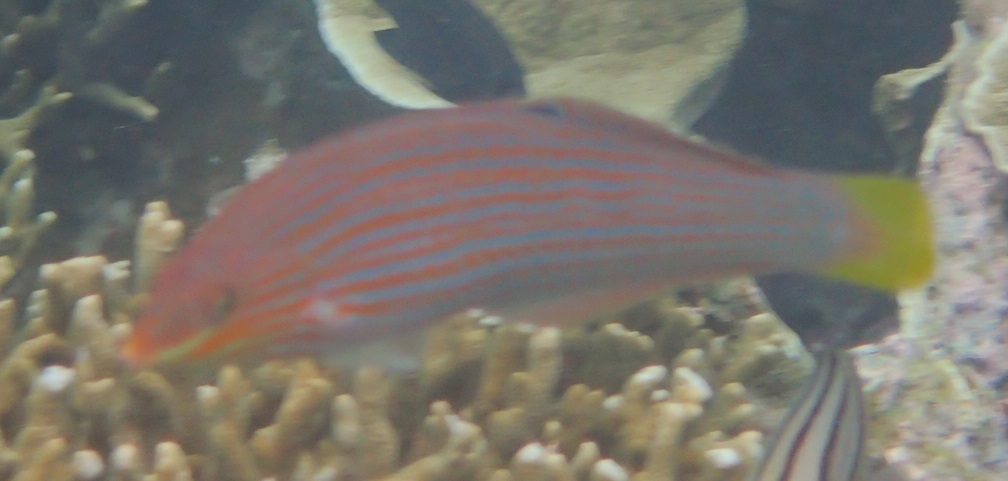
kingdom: Animalia
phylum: Chordata
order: Perciformes
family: Labridae
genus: Halichoeres
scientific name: Halichoeres leucurus
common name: Grey-head wrasse
